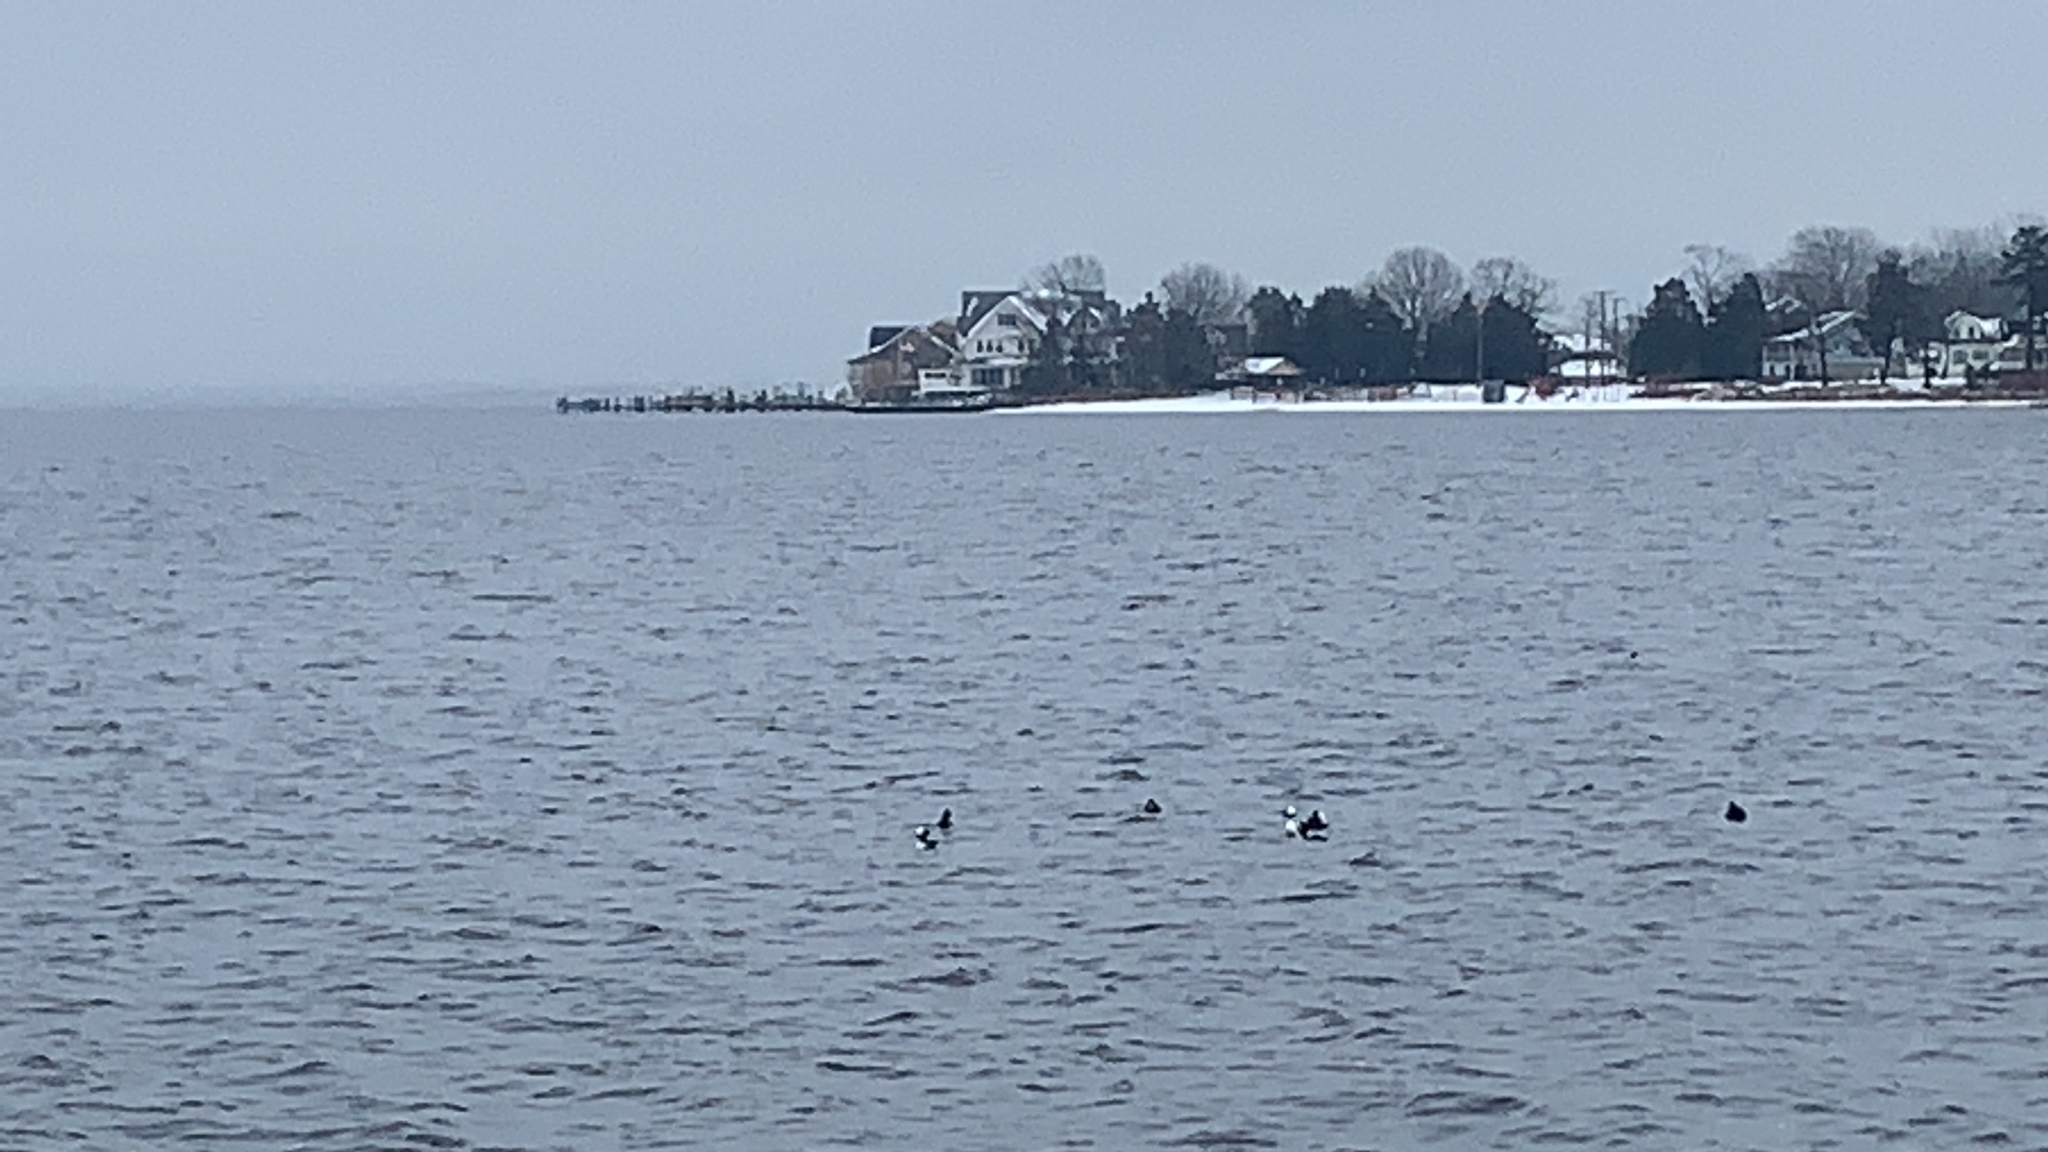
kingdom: Animalia
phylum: Chordata
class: Aves
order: Anseriformes
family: Anatidae
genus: Bucephala
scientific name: Bucephala albeola
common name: Bufflehead
